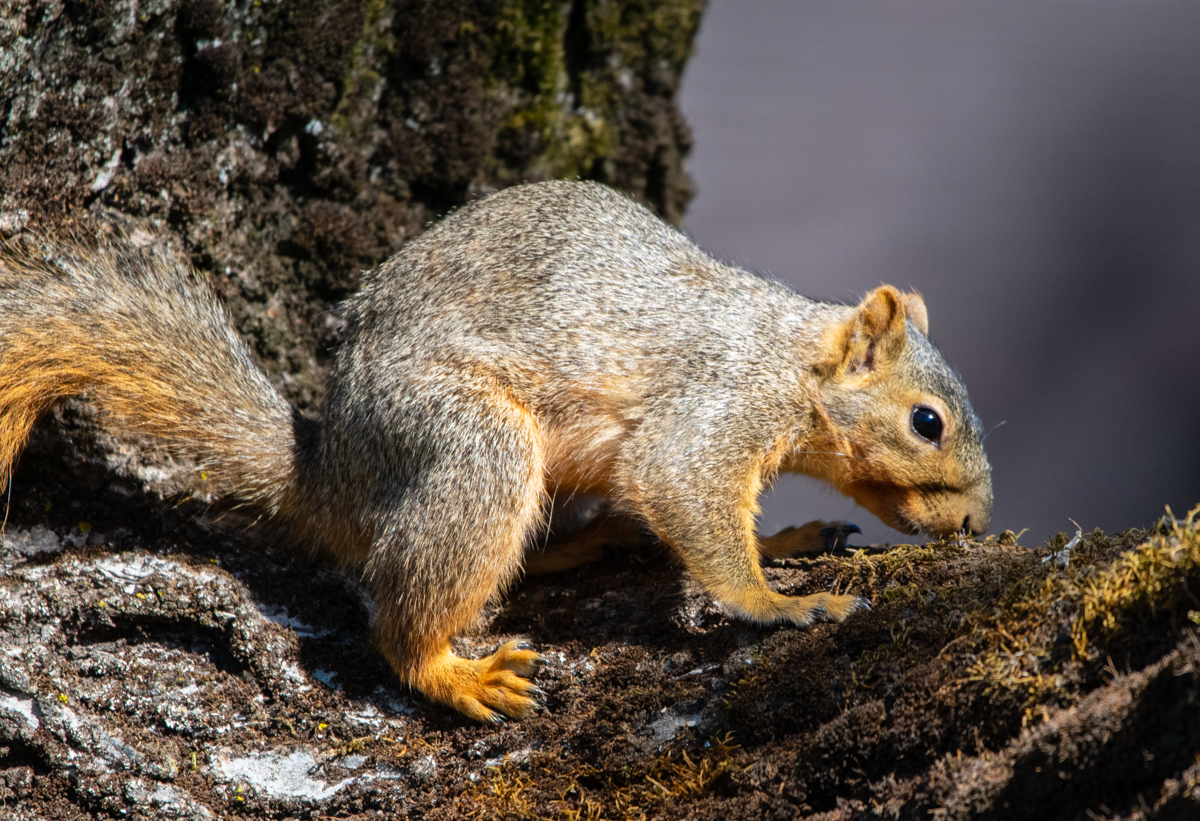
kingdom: Animalia
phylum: Chordata
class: Mammalia
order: Rodentia
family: Sciuridae
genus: Sciurus
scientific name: Sciurus niger
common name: Fox squirrel
